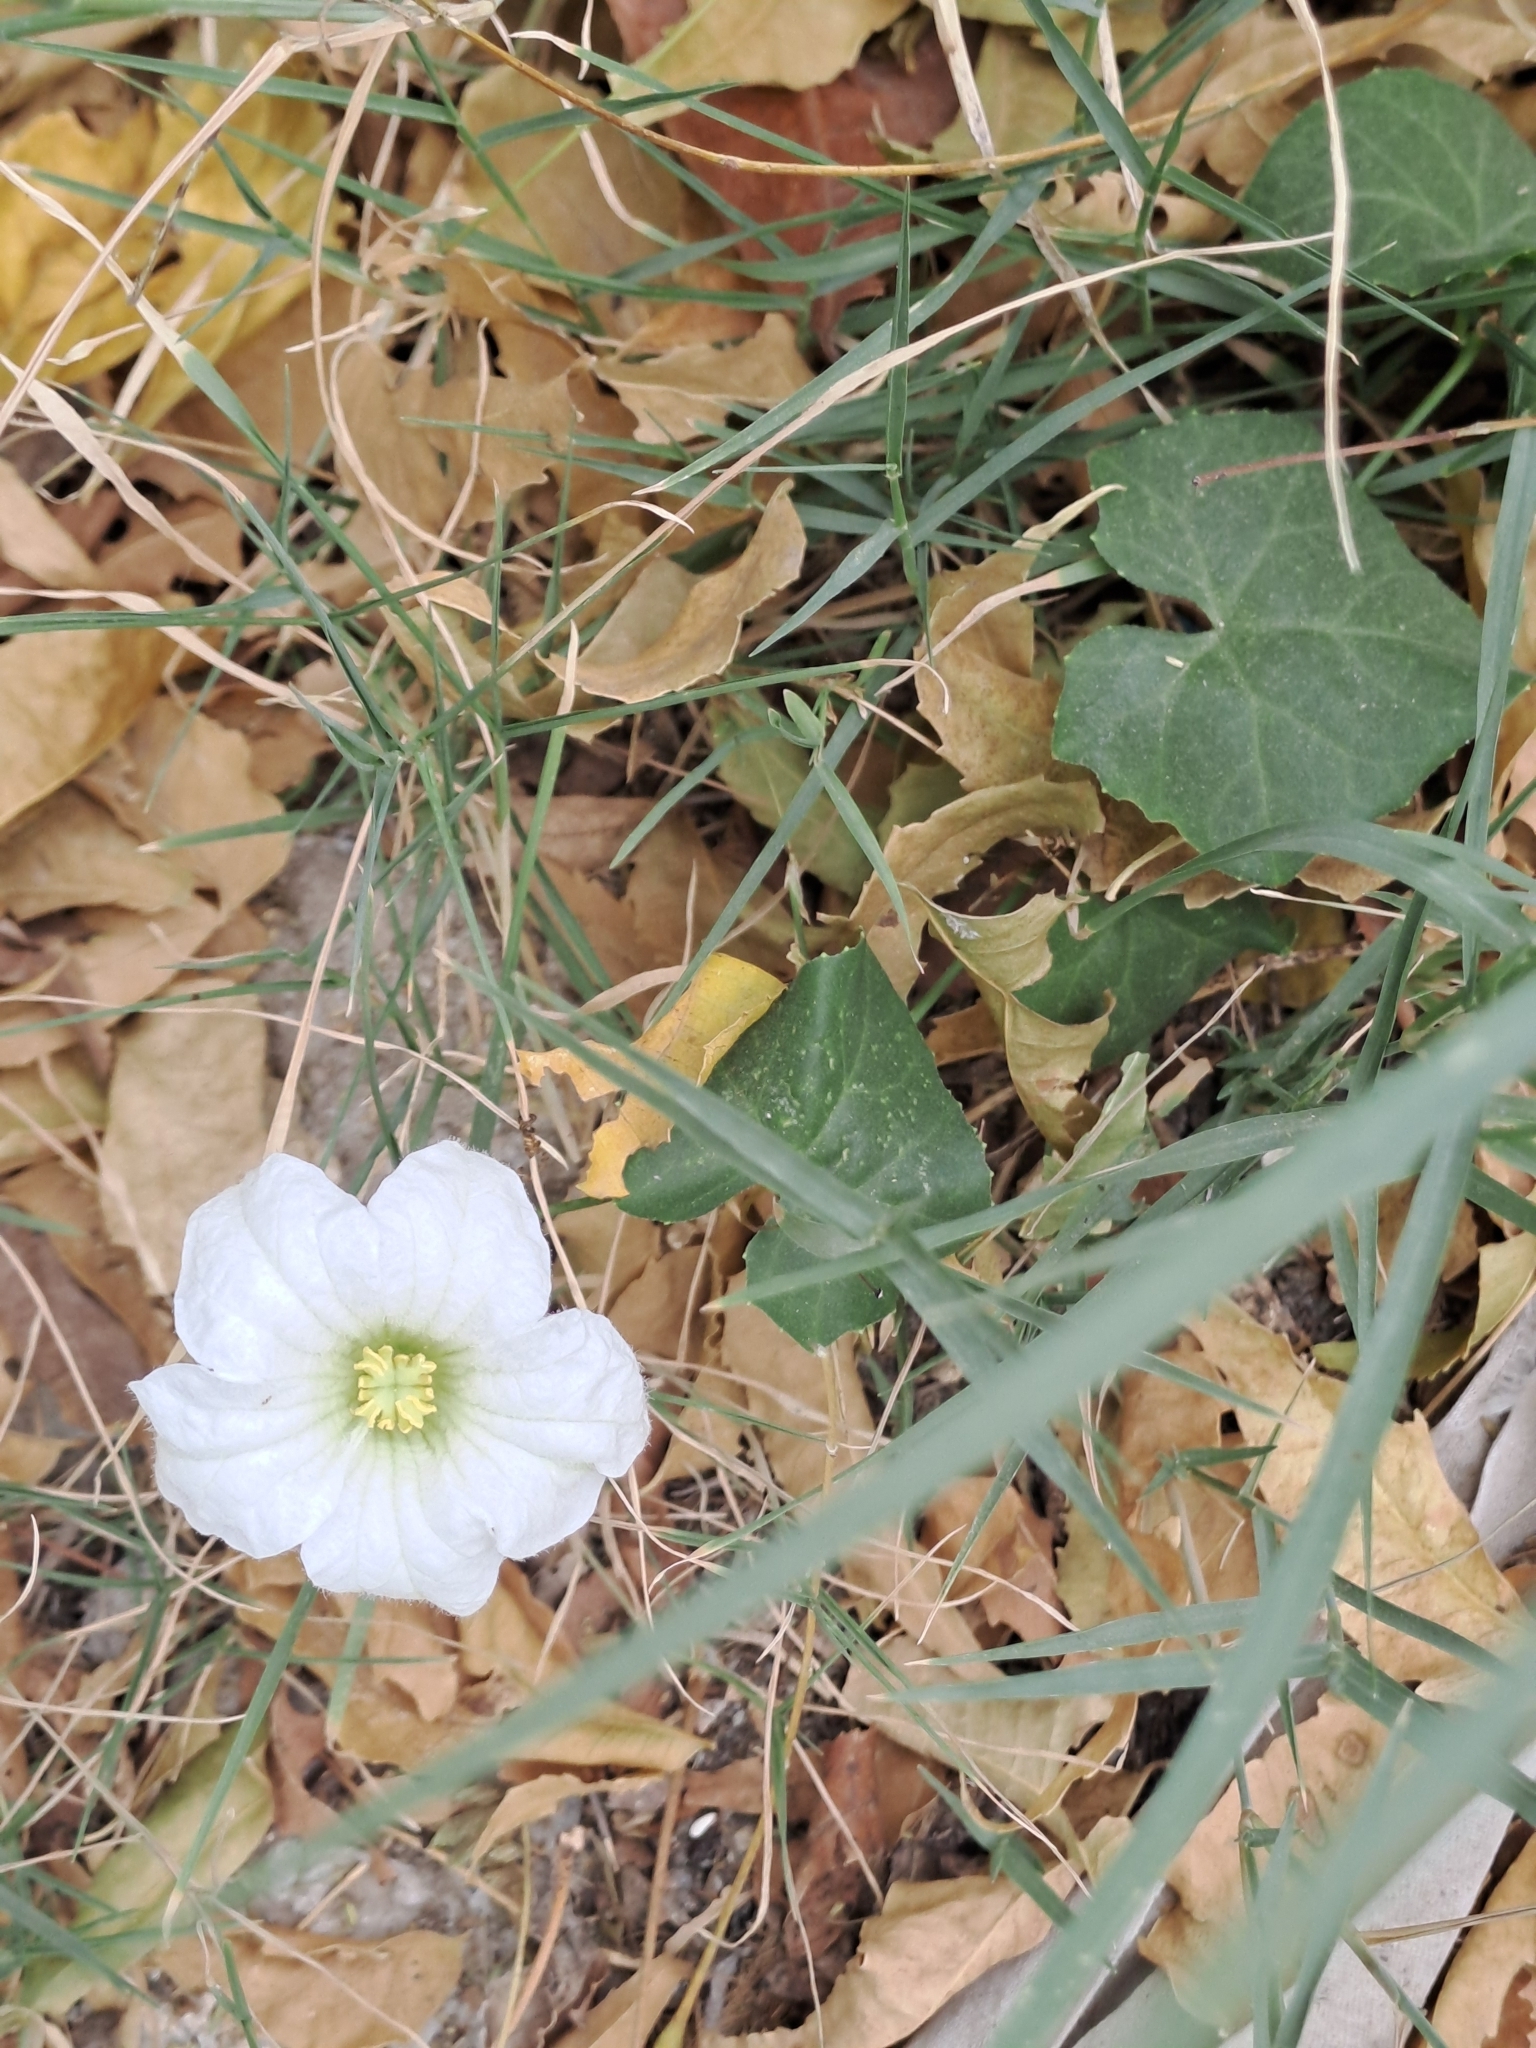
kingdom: Plantae
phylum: Tracheophyta
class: Magnoliopsida
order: Cucurbitales
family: Cucurbitaceae
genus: Coccinia
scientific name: Coccinia grandis
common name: Ivy gourd
